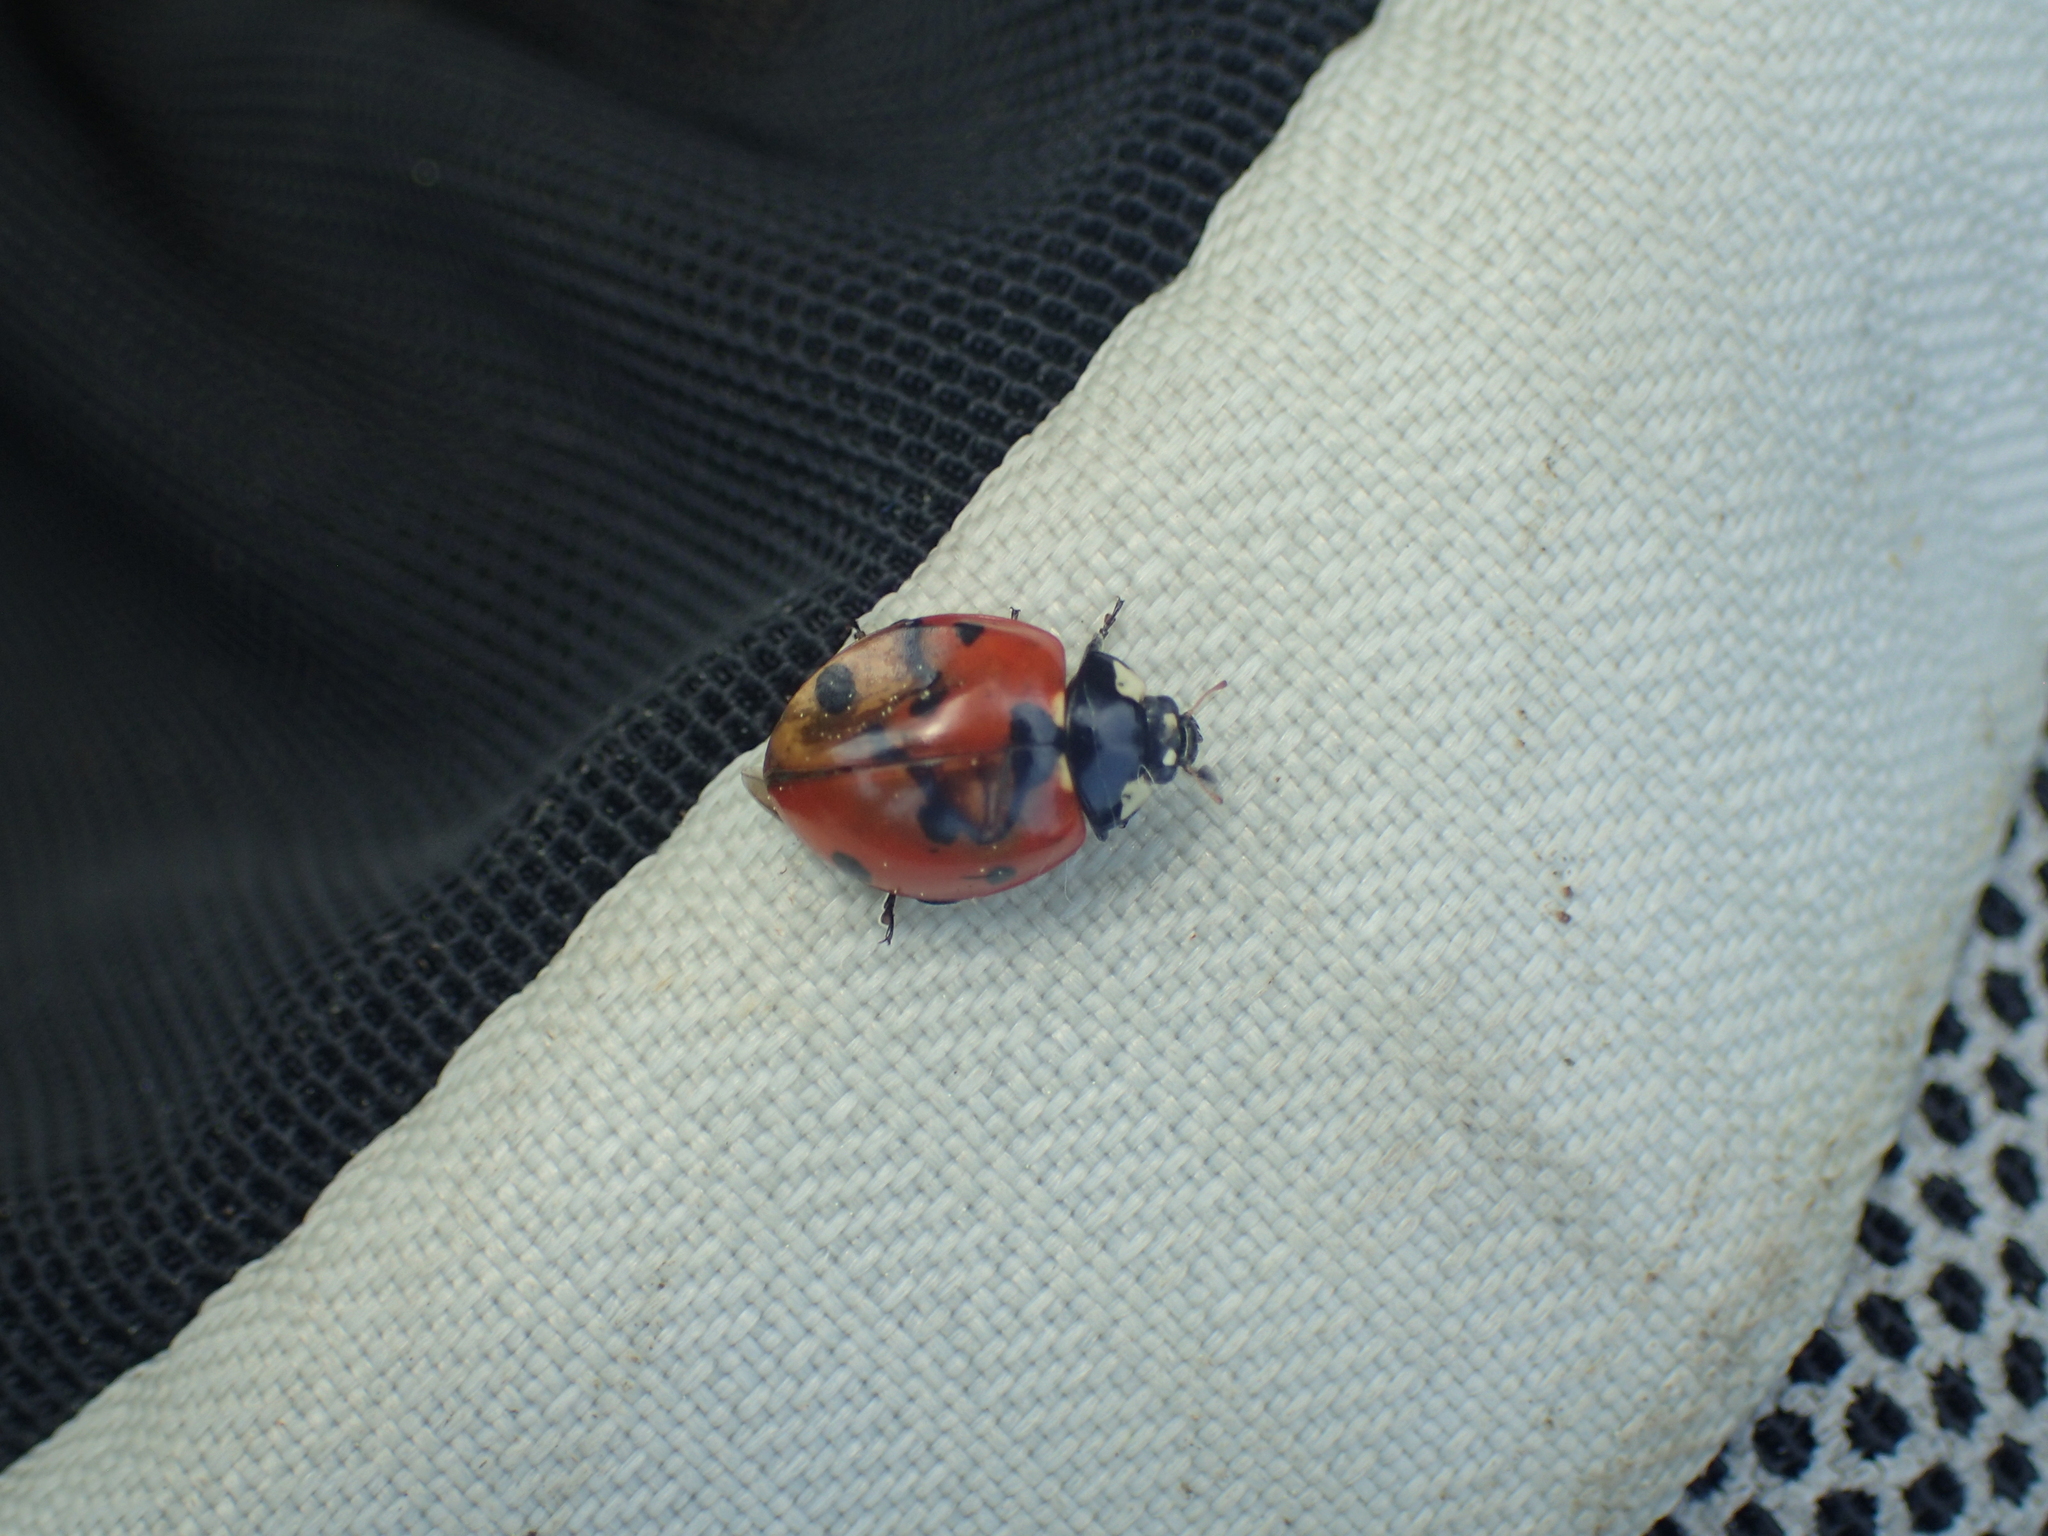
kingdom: Animalia
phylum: Arthropoda
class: Insecta
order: Coleoptera
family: Coccinellidae
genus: Coccinella
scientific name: Coccinella septempunctata
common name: Sevenspotted lady beetle
